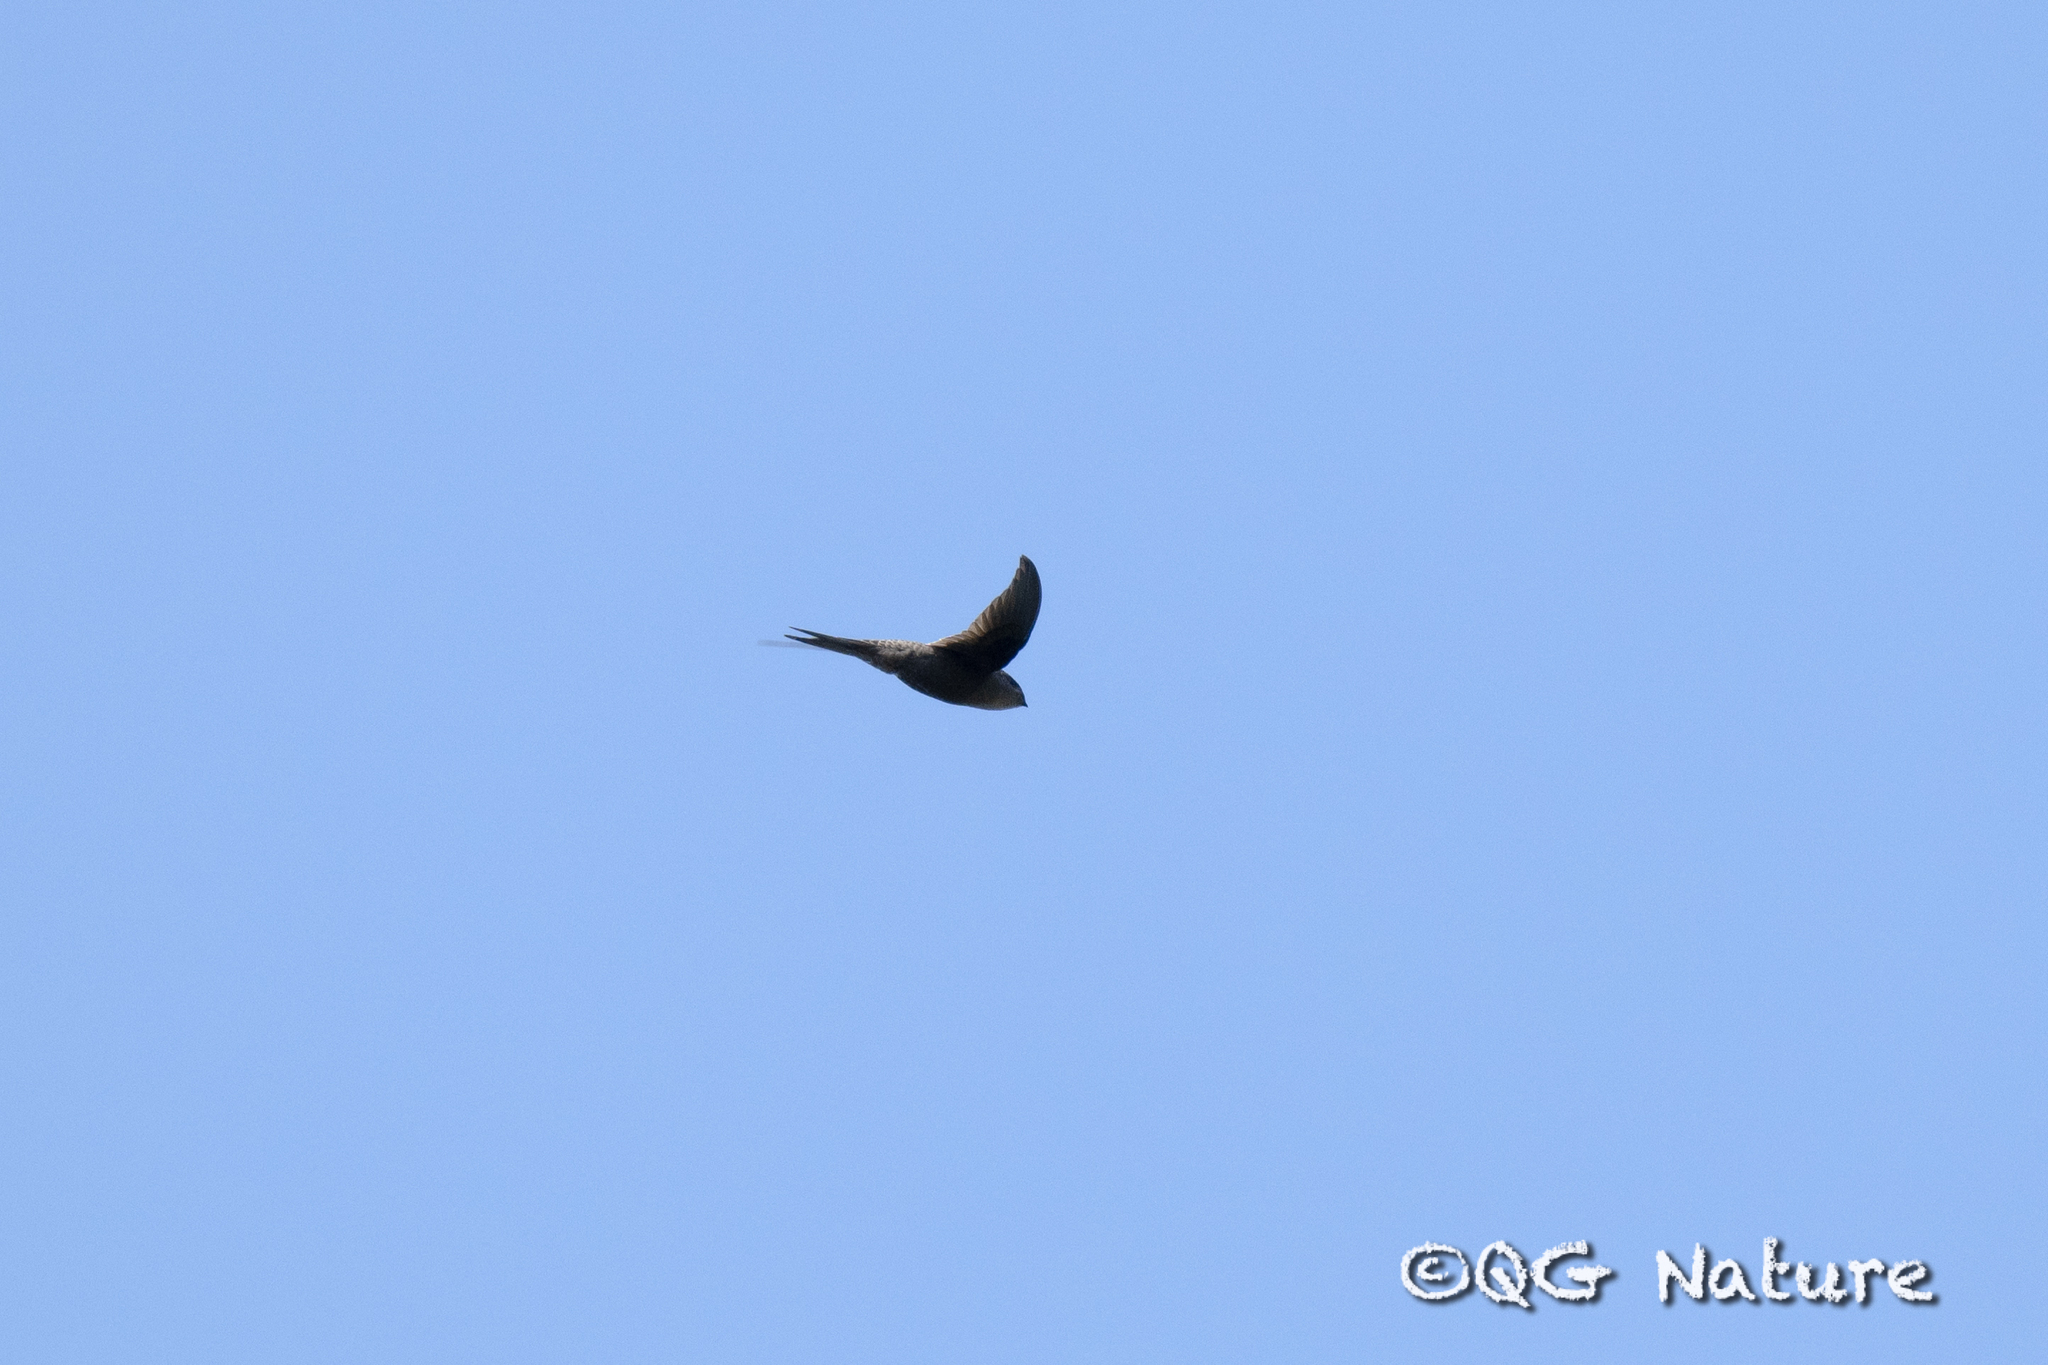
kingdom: Animalia
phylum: Chordata
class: Aves
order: Apodiformes
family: Apodidae
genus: Cypsiurus
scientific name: Cypsiurus balasiensis
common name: Asian palm swift
